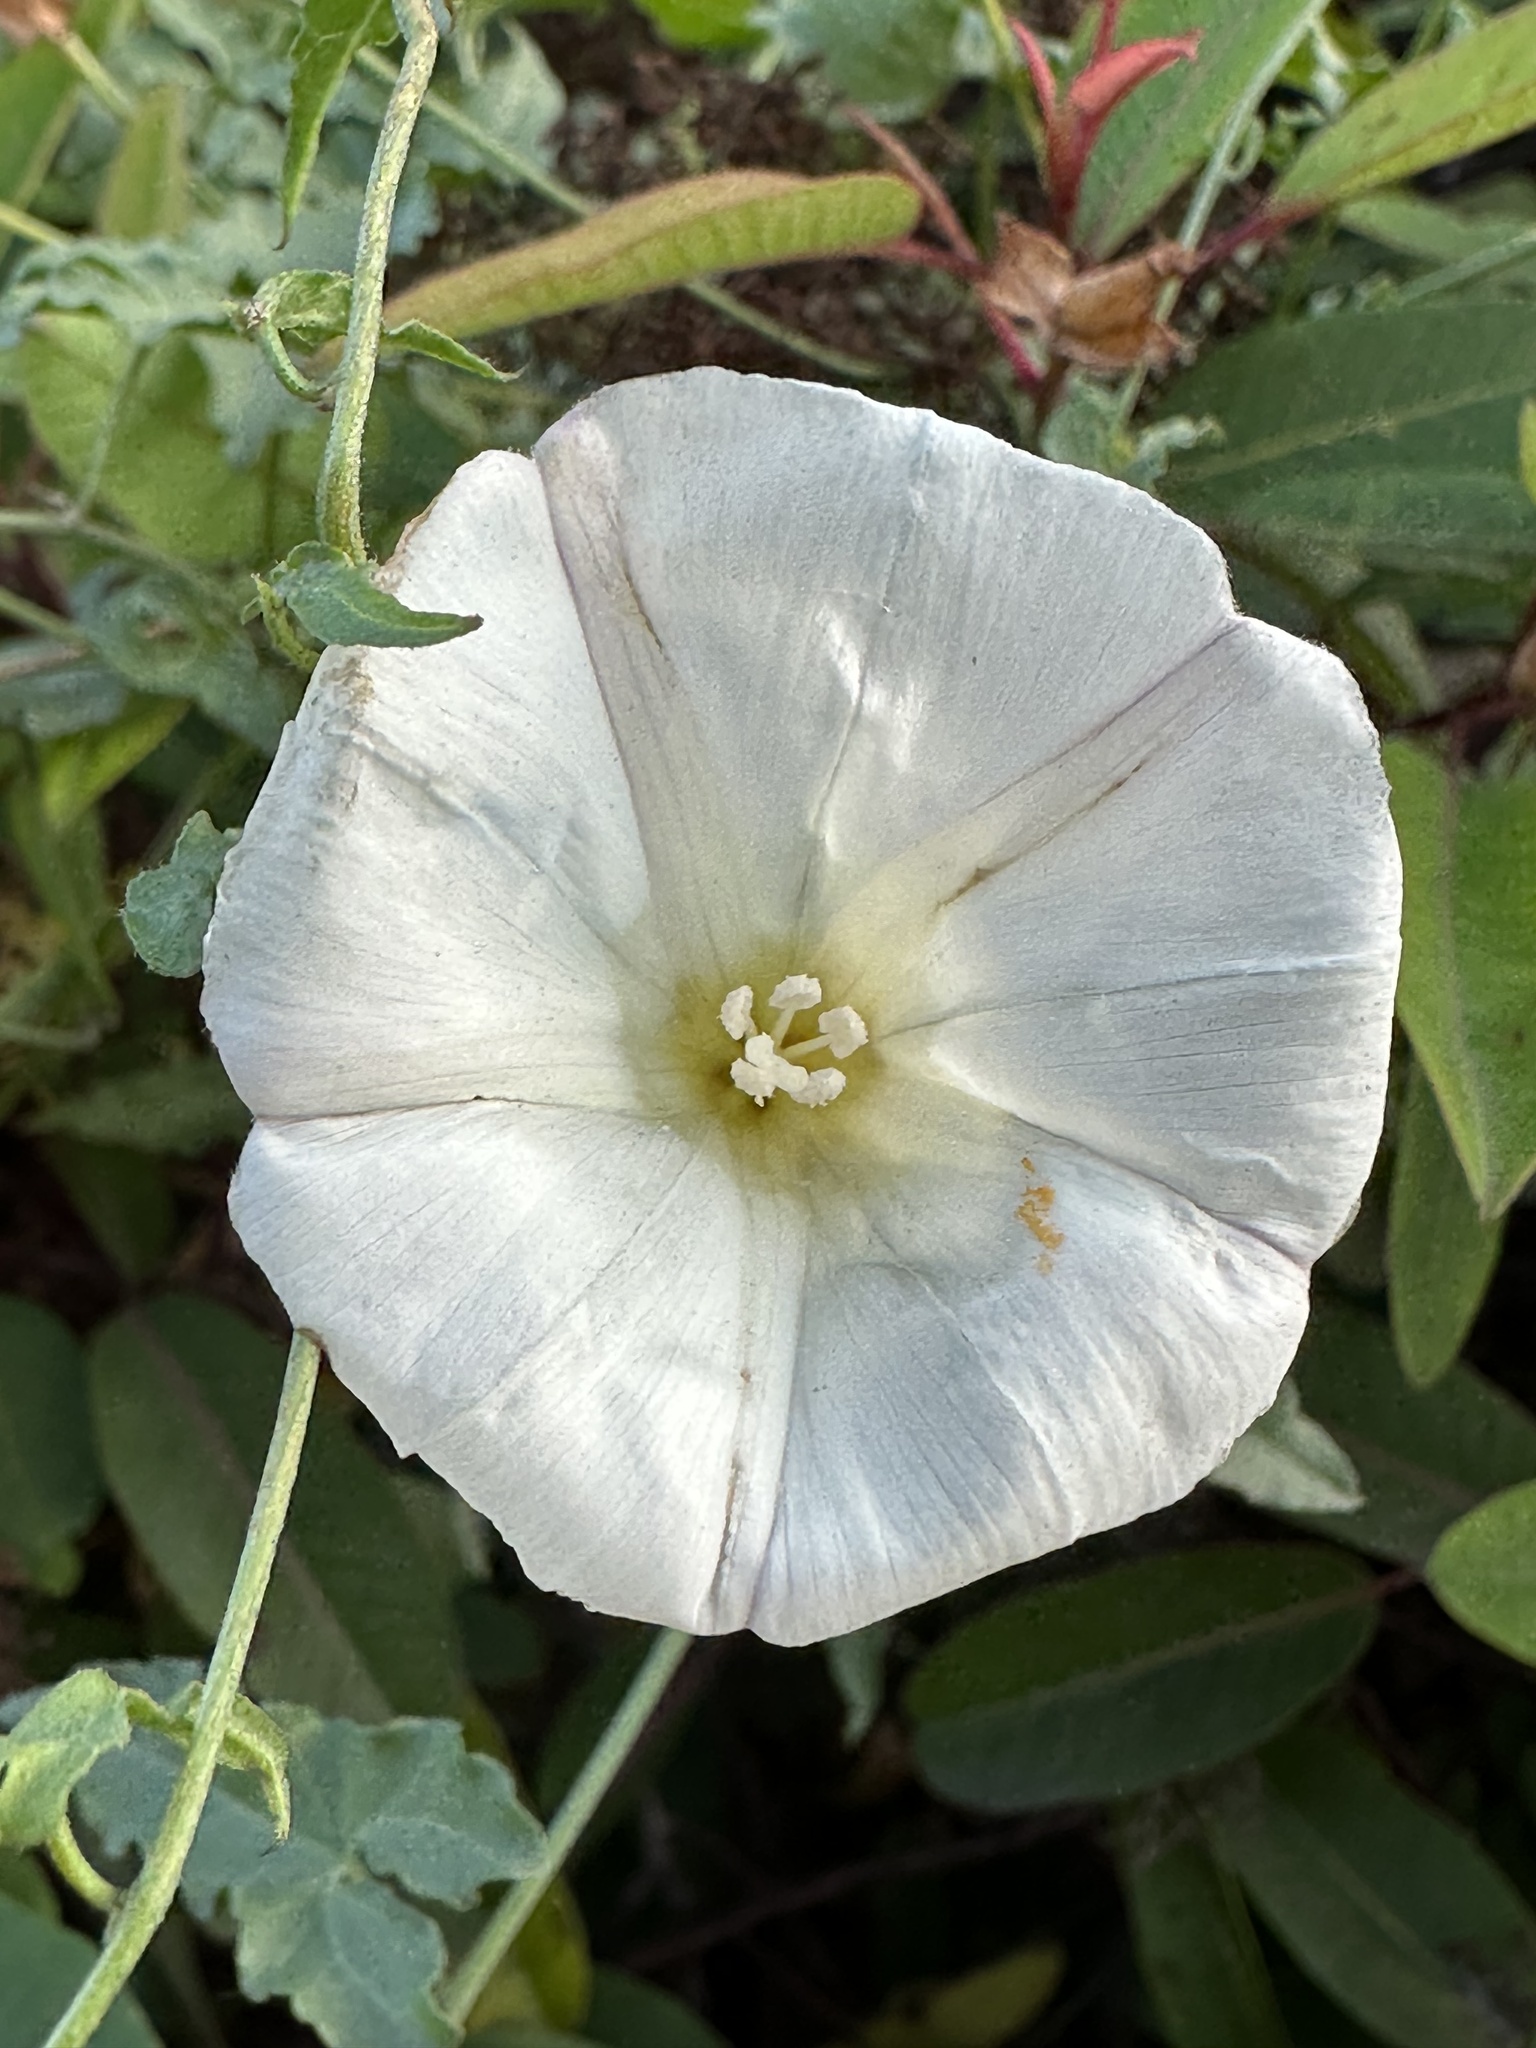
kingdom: Plantae
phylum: Tracheophyta
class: Magnoliopsida
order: Solanales
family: Convolvulaceae
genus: Calystegia
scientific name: Calystegia macrostegia
